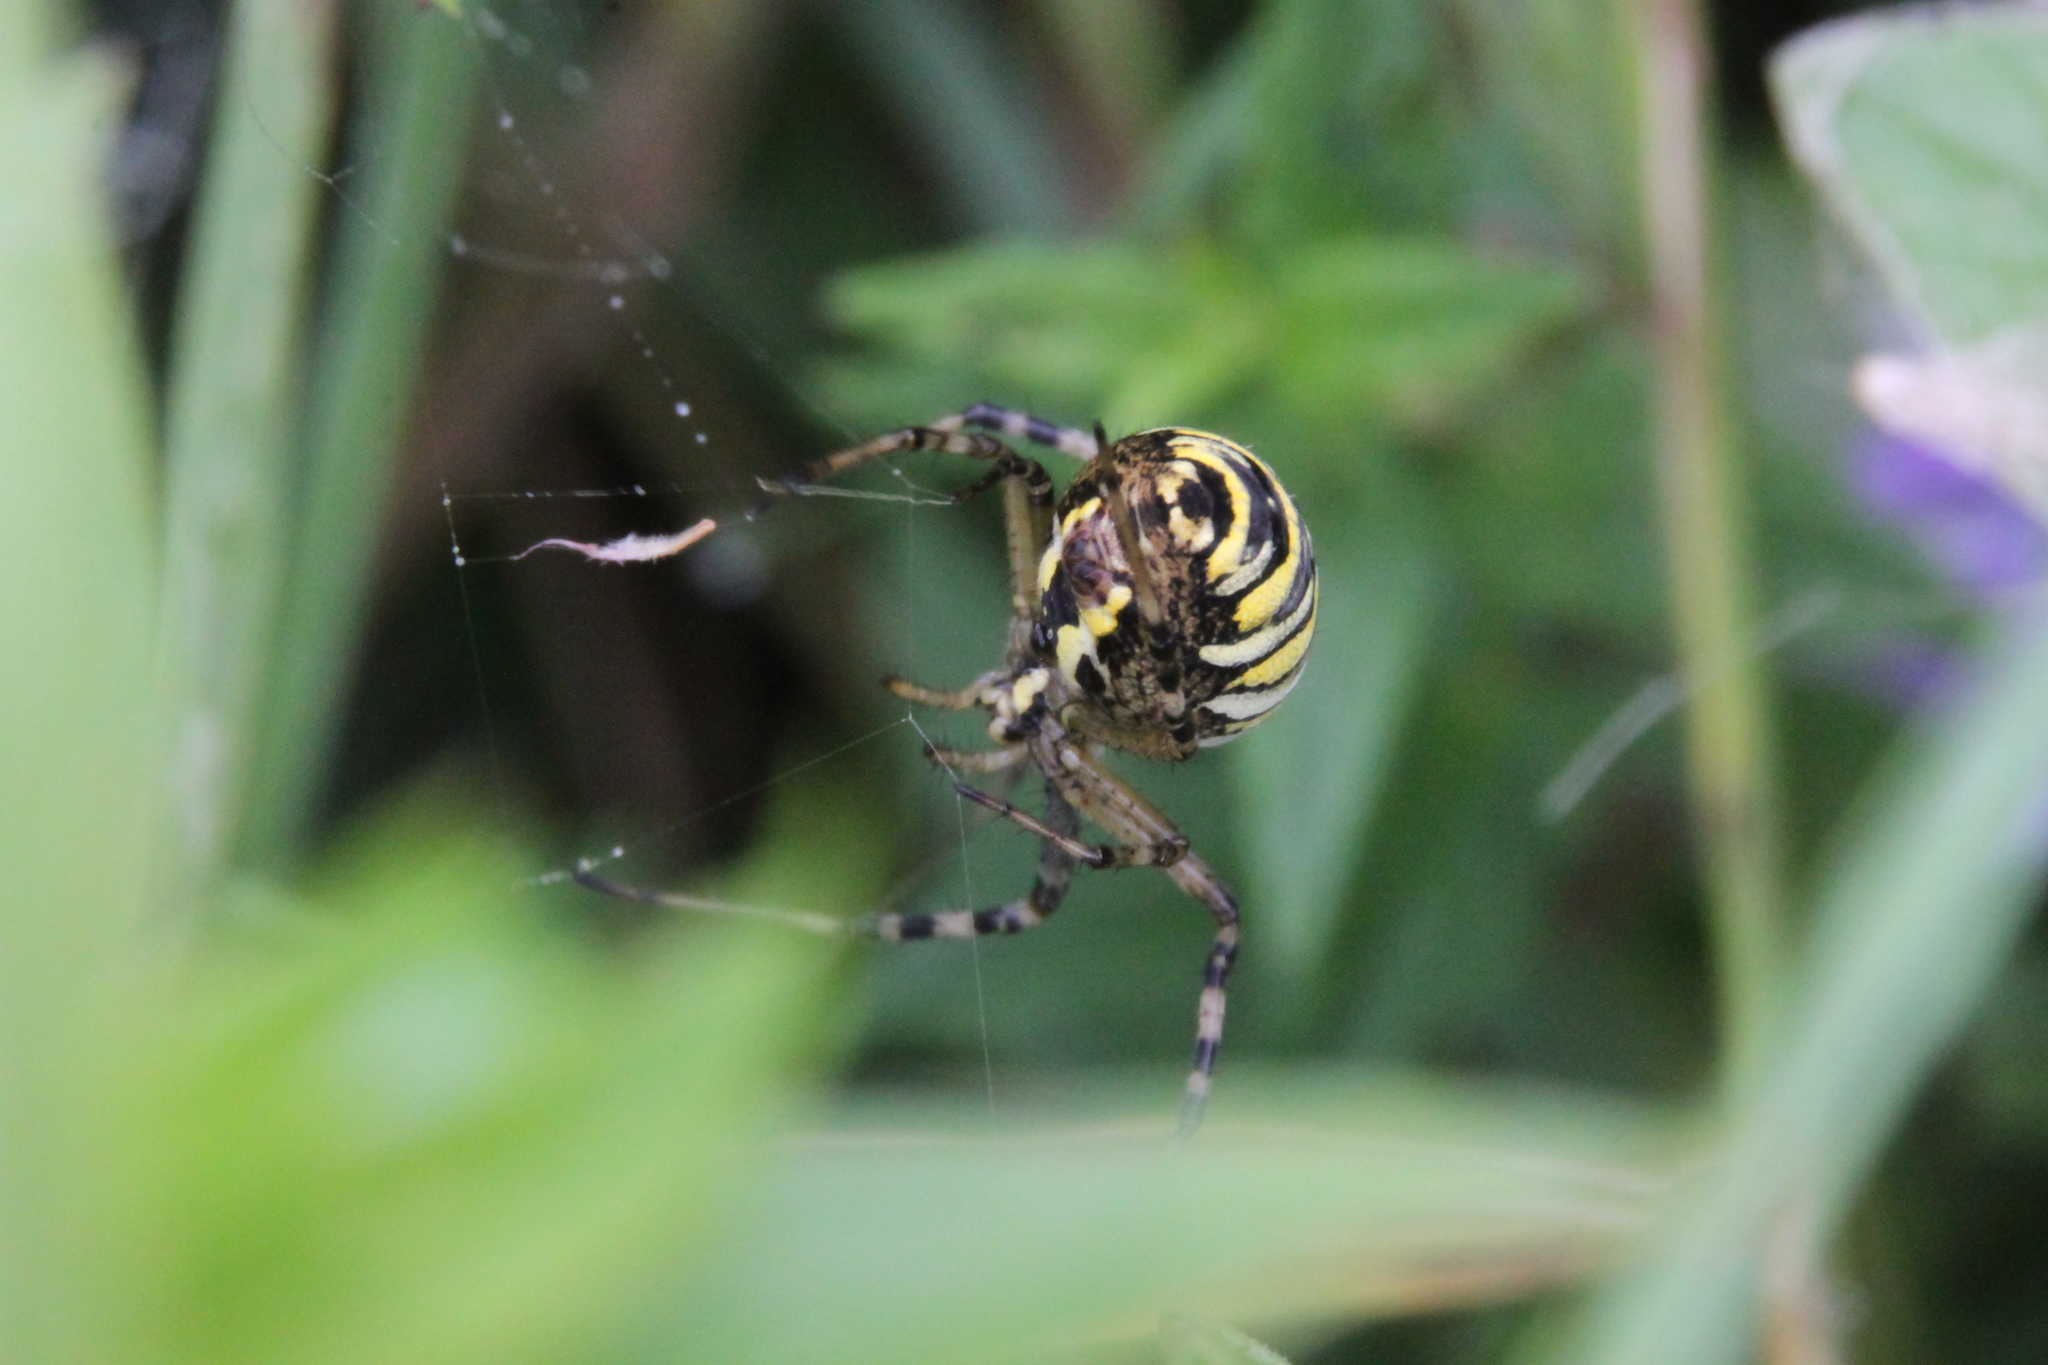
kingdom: Animalia
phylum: Arthropoda
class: Arachnida
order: Araneae
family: Araneidae
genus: Argiope
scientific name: Argiope bruennichi
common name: Wasp spider
